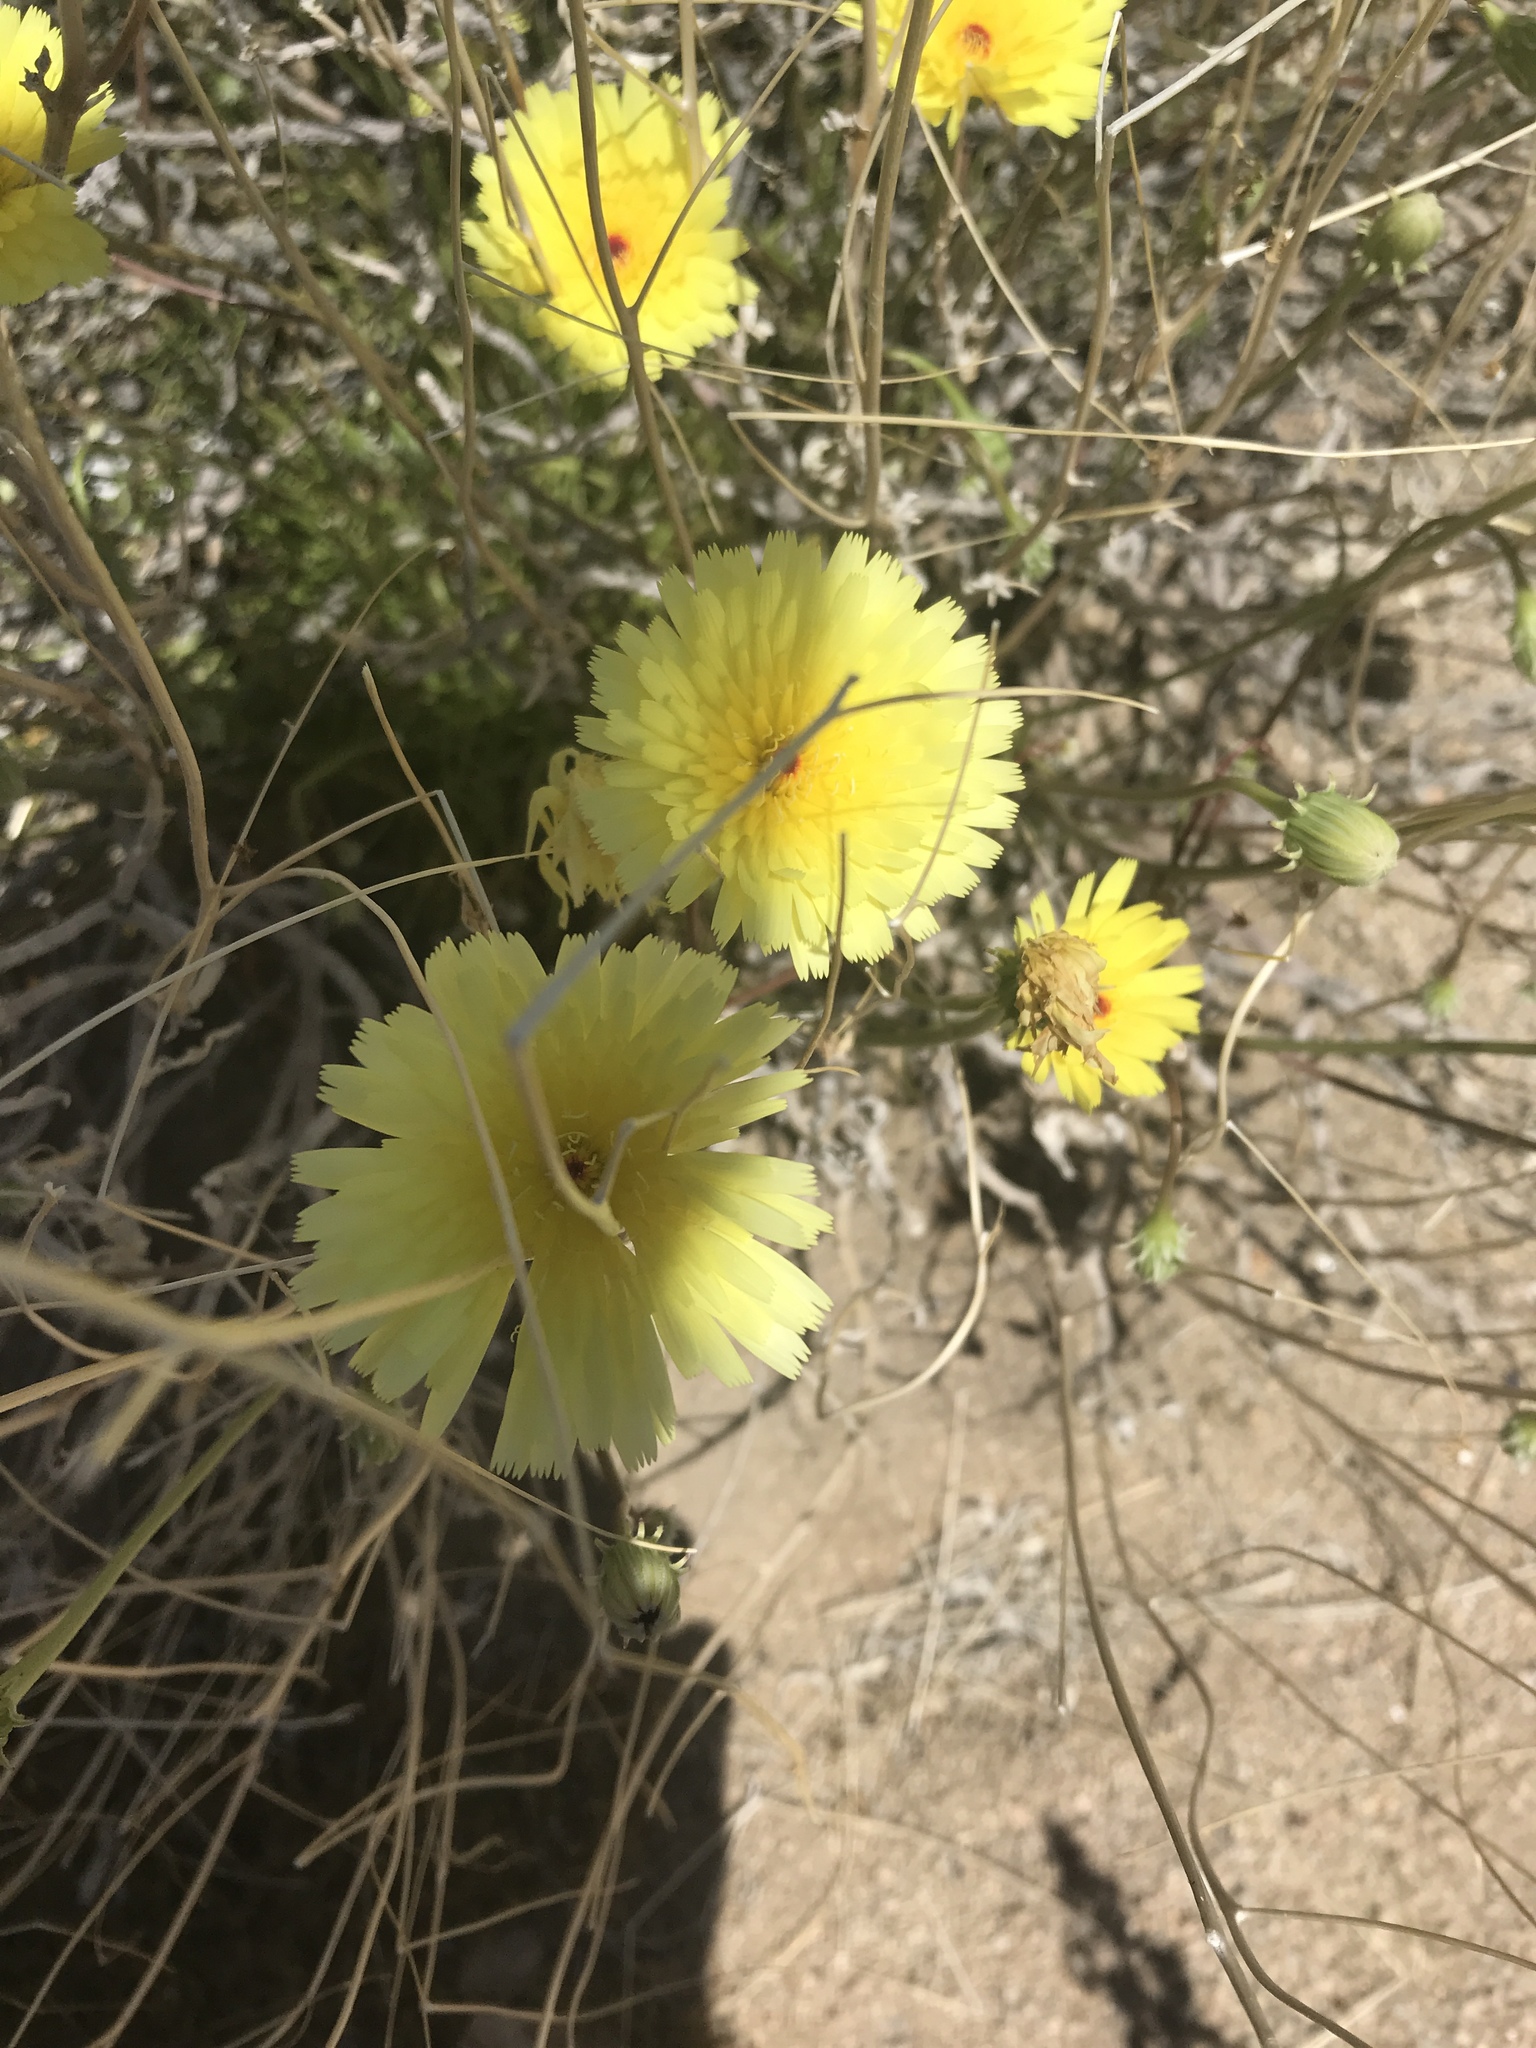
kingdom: Plantae
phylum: Tracheophyta
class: Magnoliopsida
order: Asterales
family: Asteraceae
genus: Malacothrix
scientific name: Malacothrix glabrata
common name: Smooth desert-dandelion
